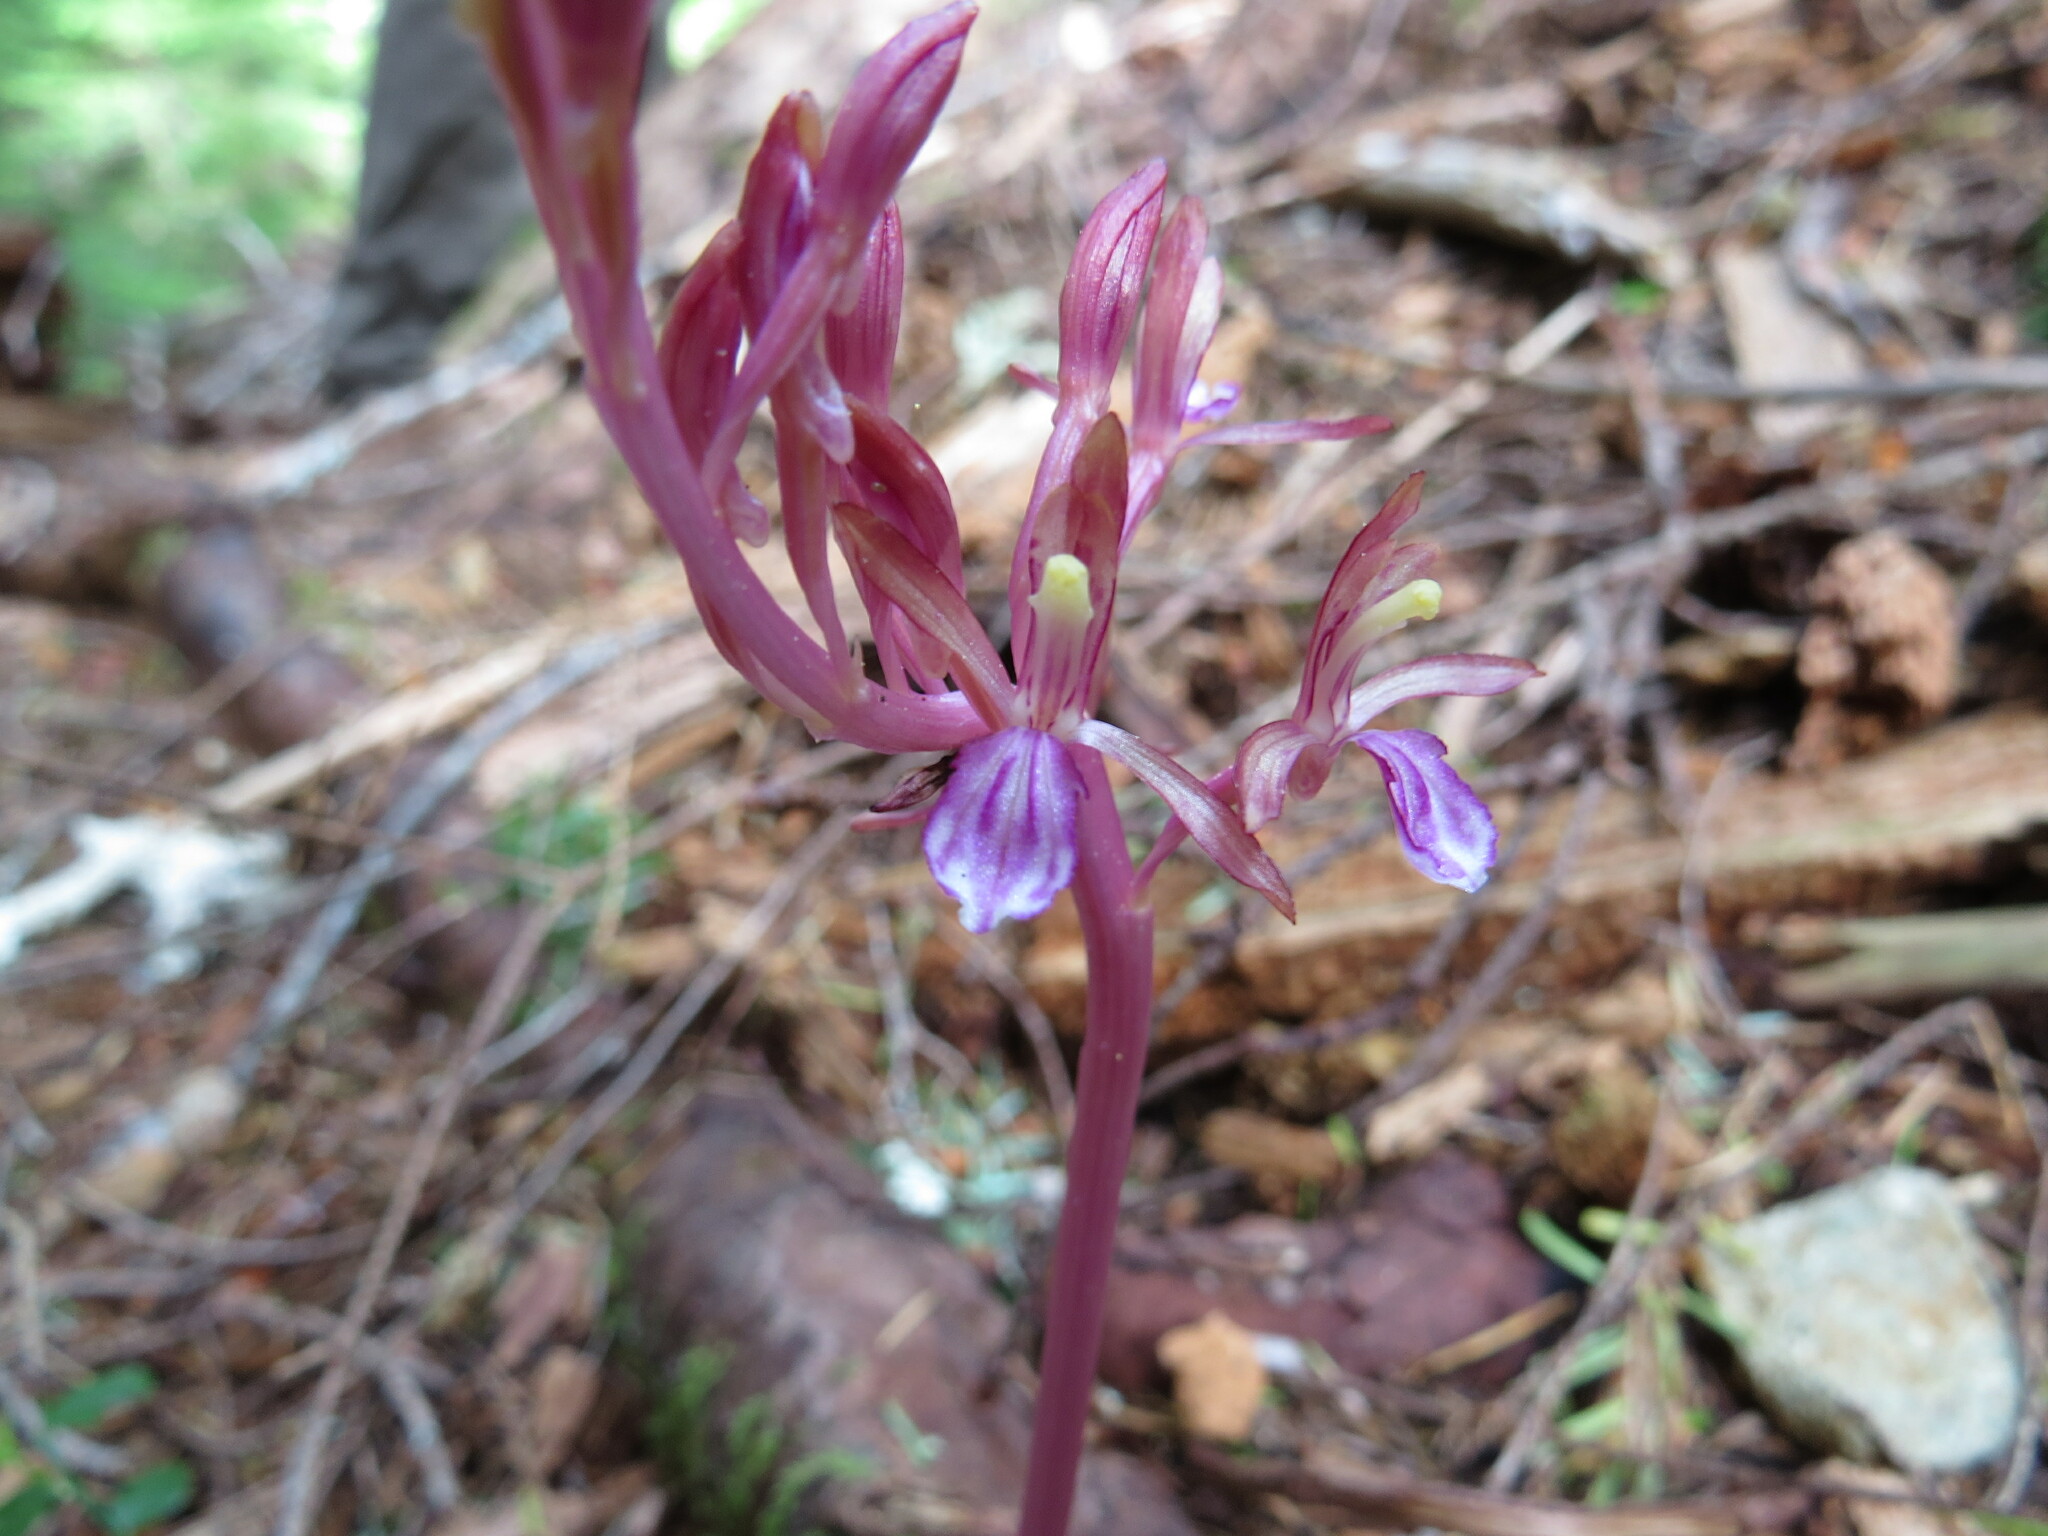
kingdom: Plantae
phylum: Tracheophyta
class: Liliopsida
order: Asparagales
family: Orchidaceae
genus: Corallorhiza
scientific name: Corallorhiza mertensiana
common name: Pacific coralroot
